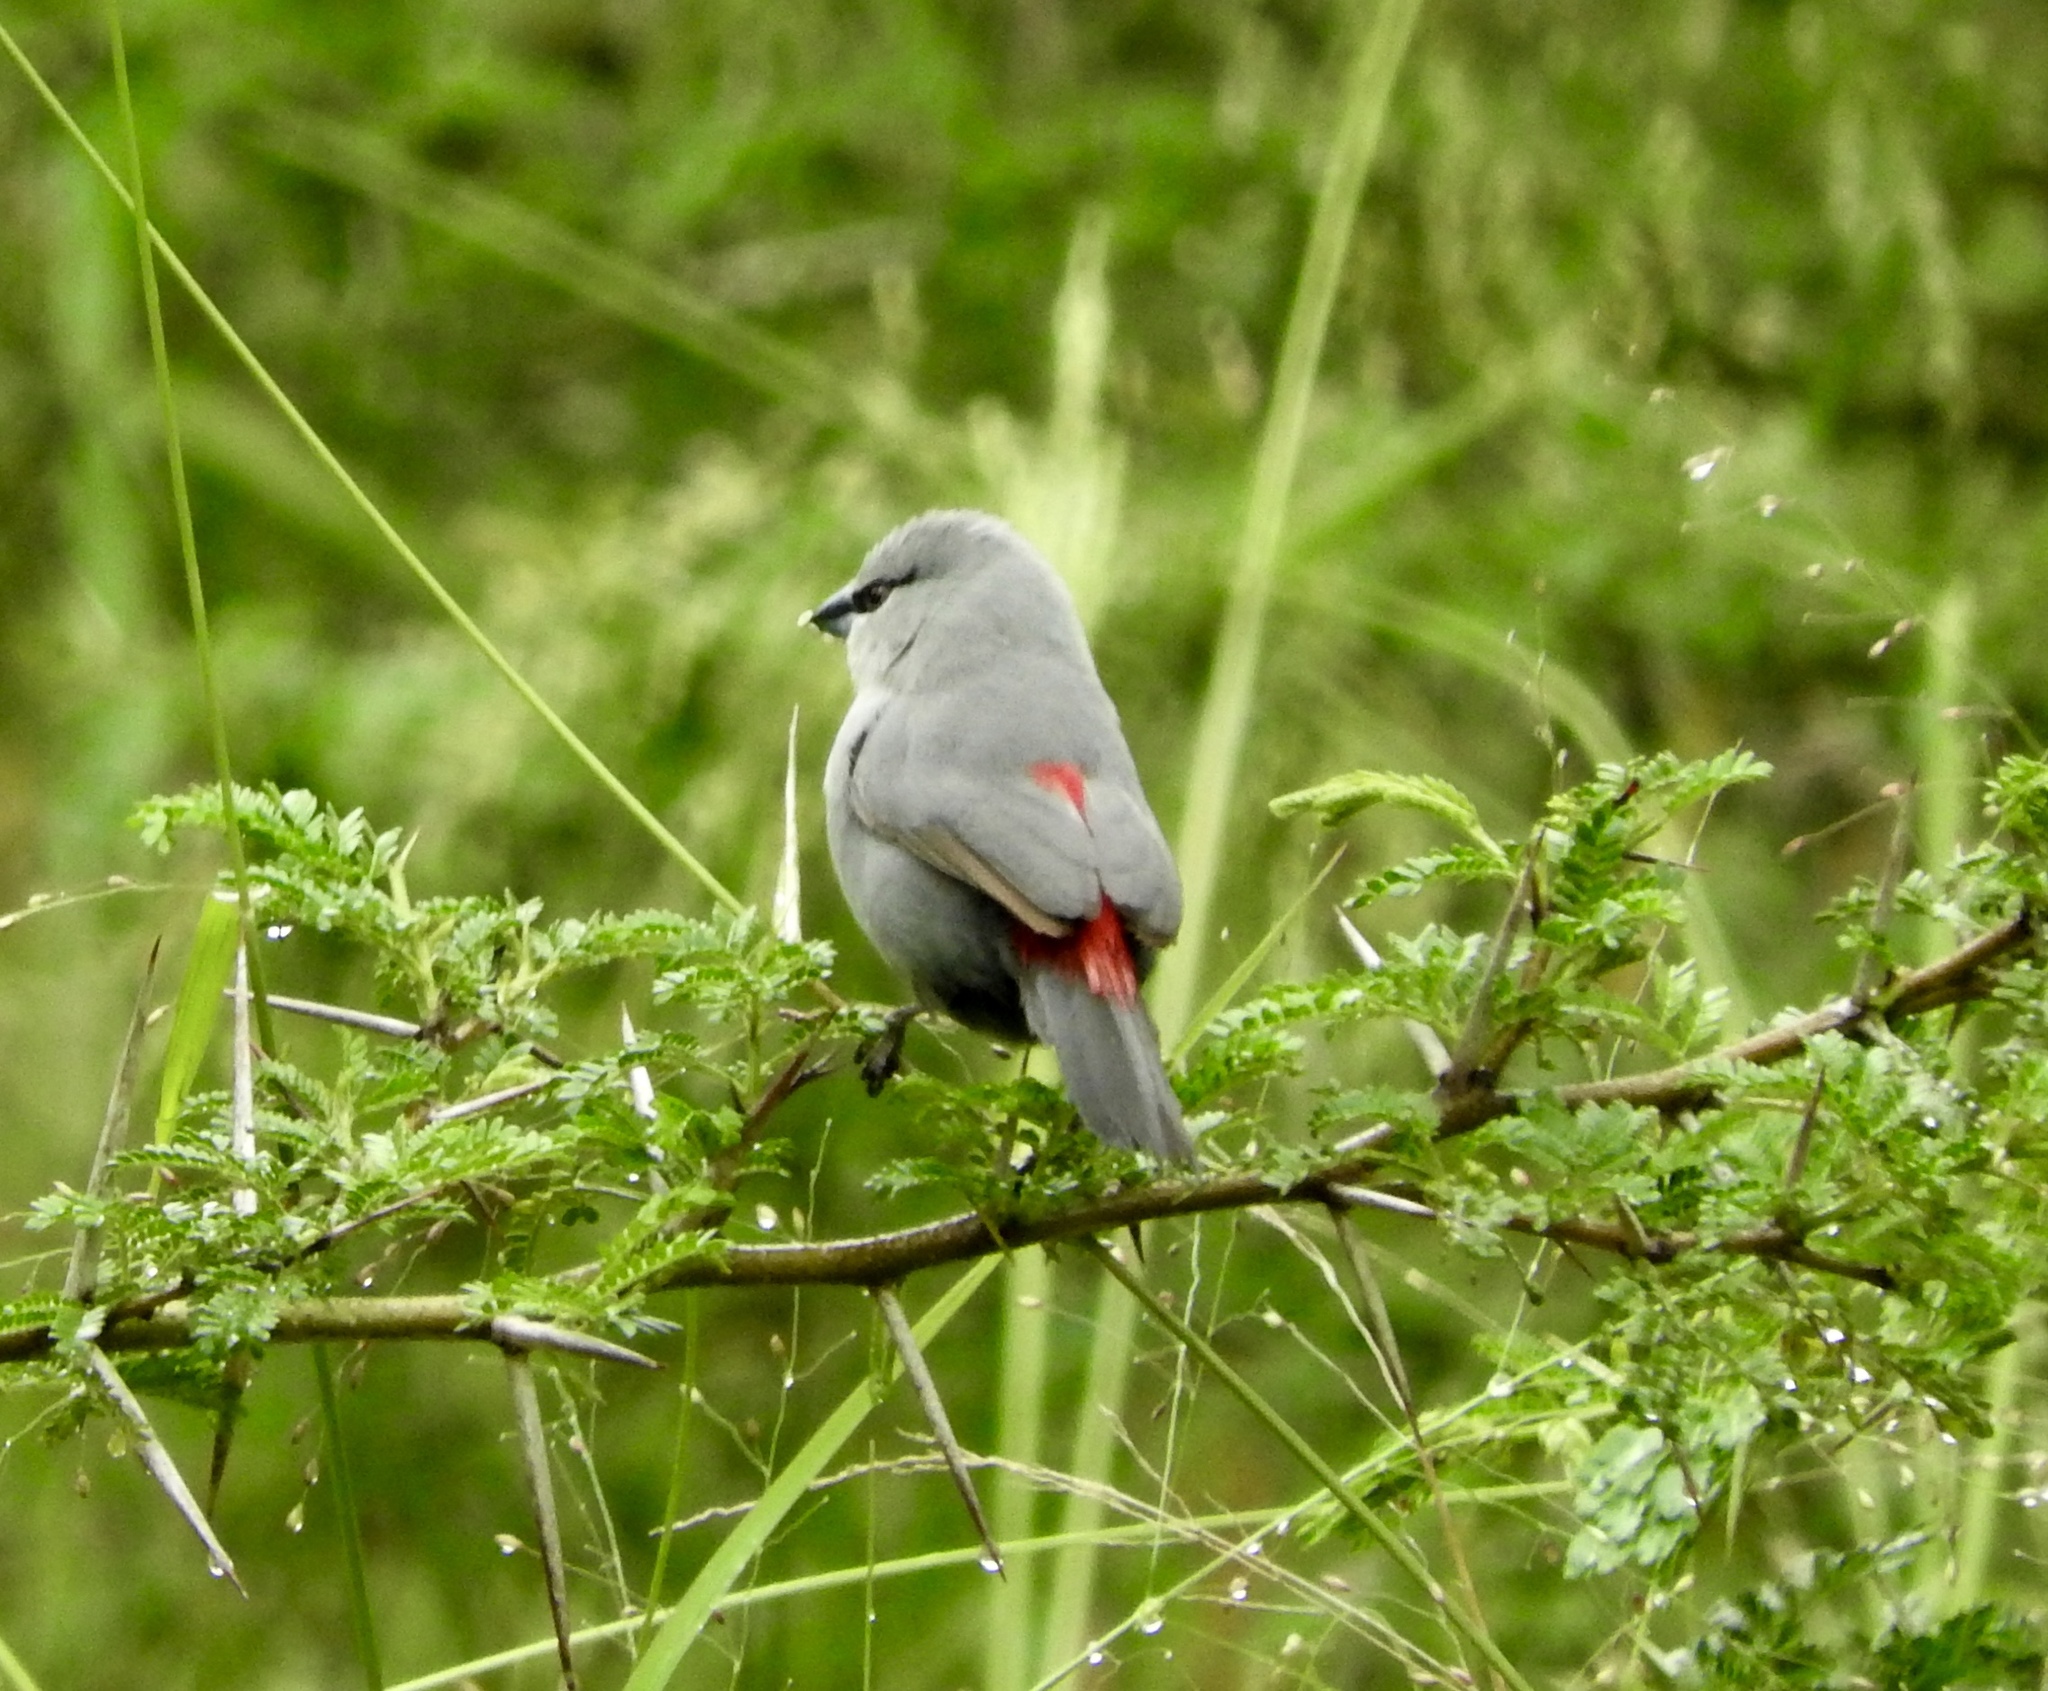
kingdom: Animalia
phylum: Chordata
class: Aves
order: Passeriformes
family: Estrildidae
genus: Estrilda
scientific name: Estrilda perreini
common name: Grey waxbill
